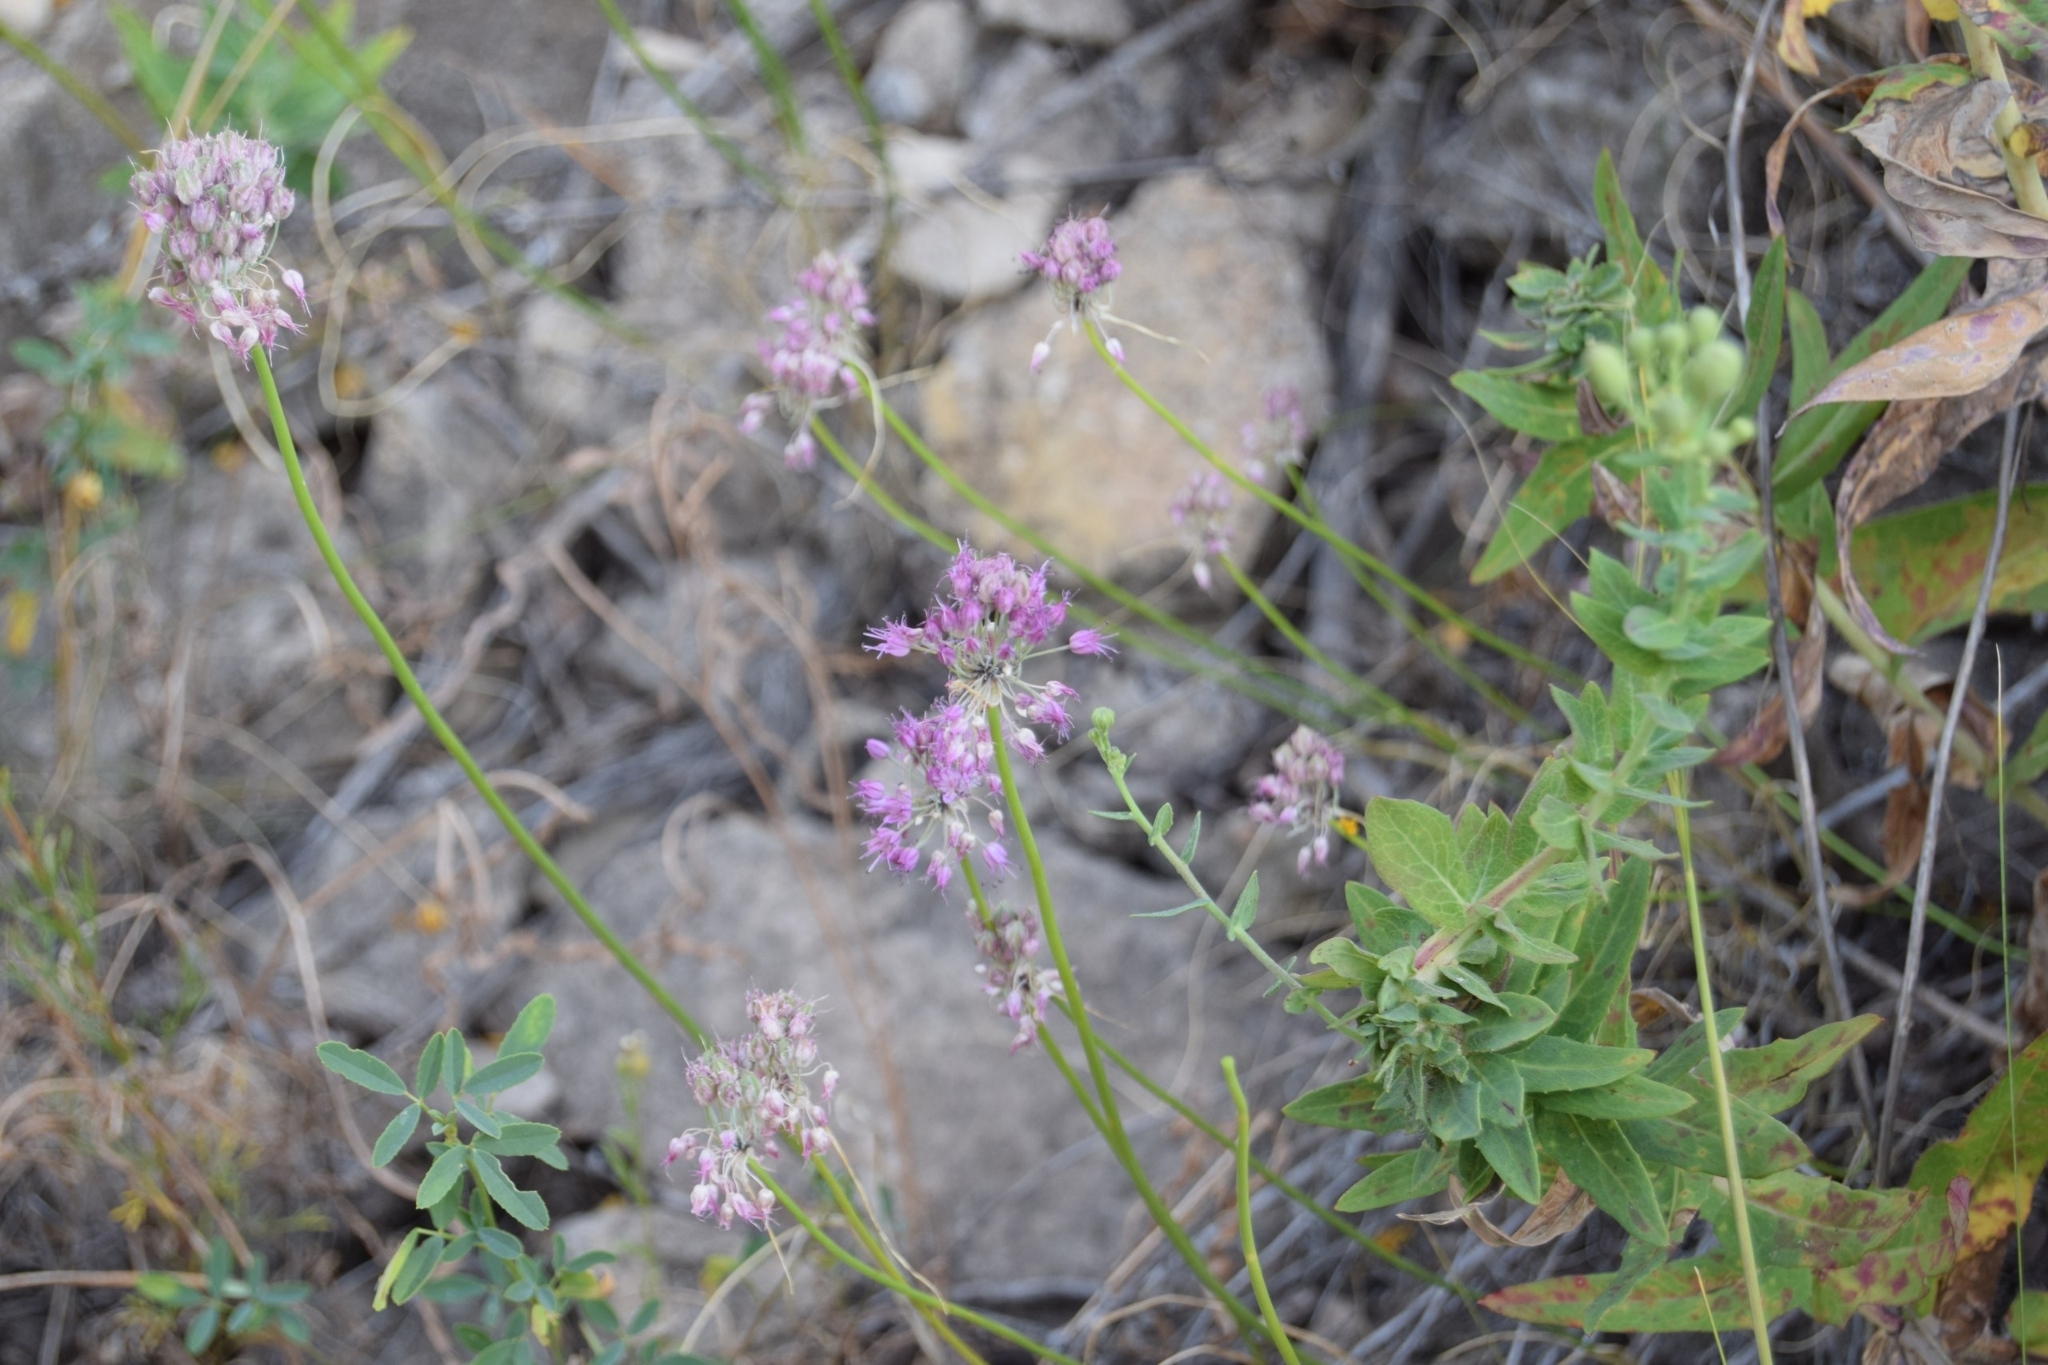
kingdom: Plantae
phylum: Tracheophyta
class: Liliopsida
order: Asparagales
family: Amaryllidaceae
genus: Allium
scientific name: Allium cretaceum
